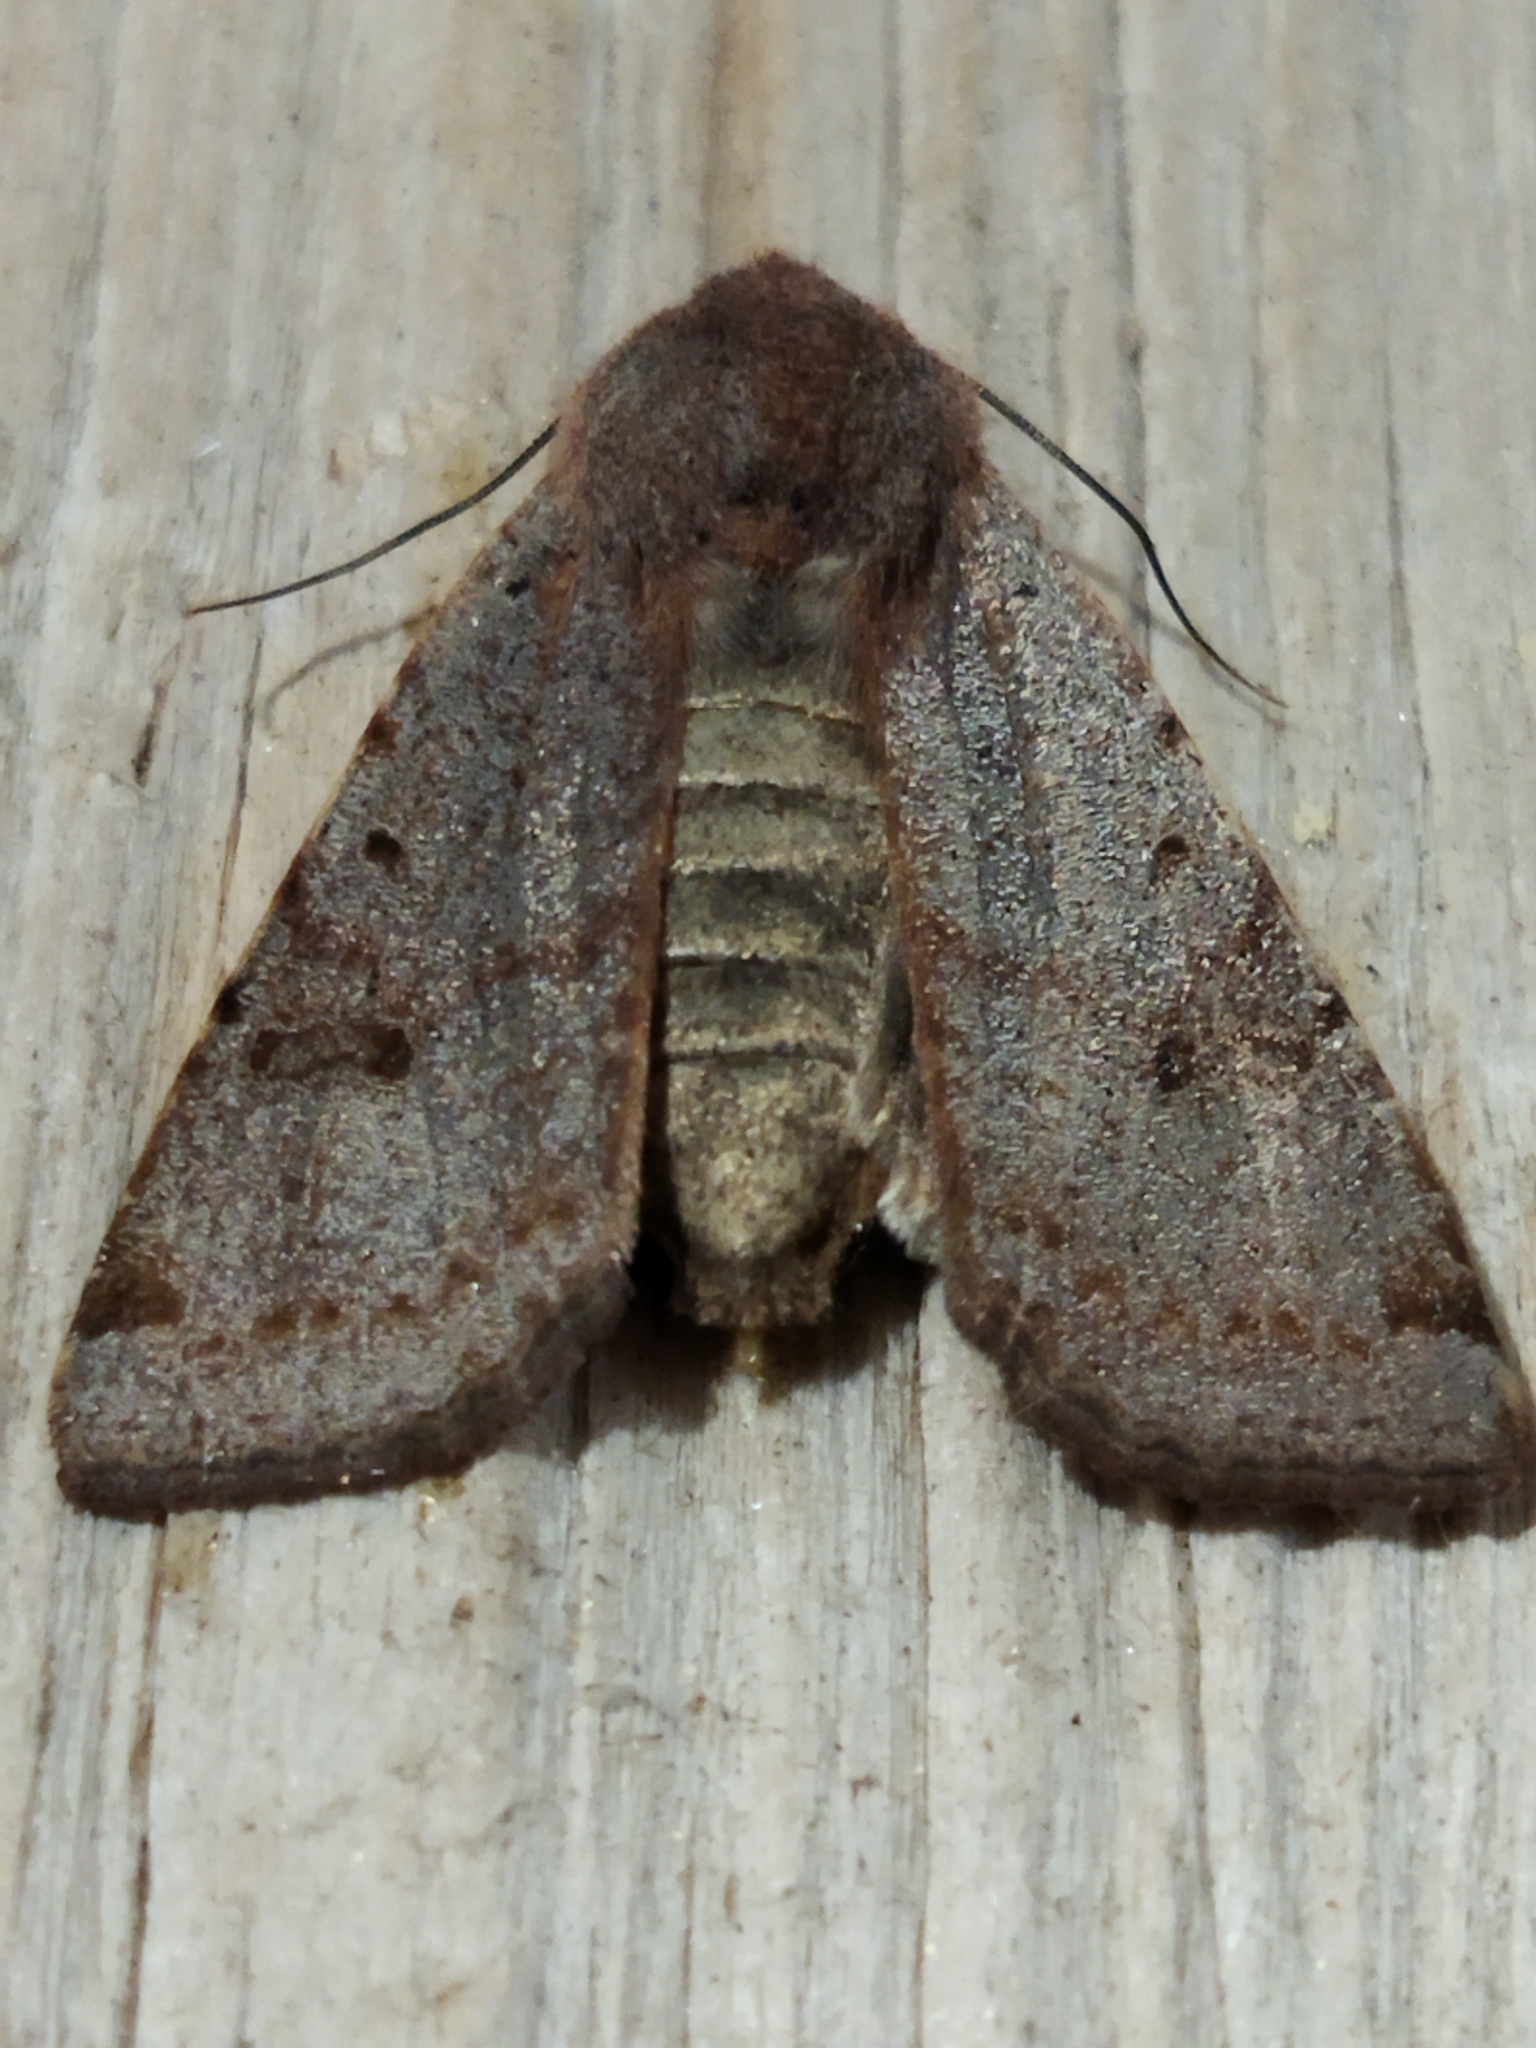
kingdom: Animalia
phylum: Arthropoda
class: Insecta
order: Lepidoptera
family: Noctuidae
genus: Agrochola
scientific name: Agrochola lychnidis
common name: Beaded chestnut
